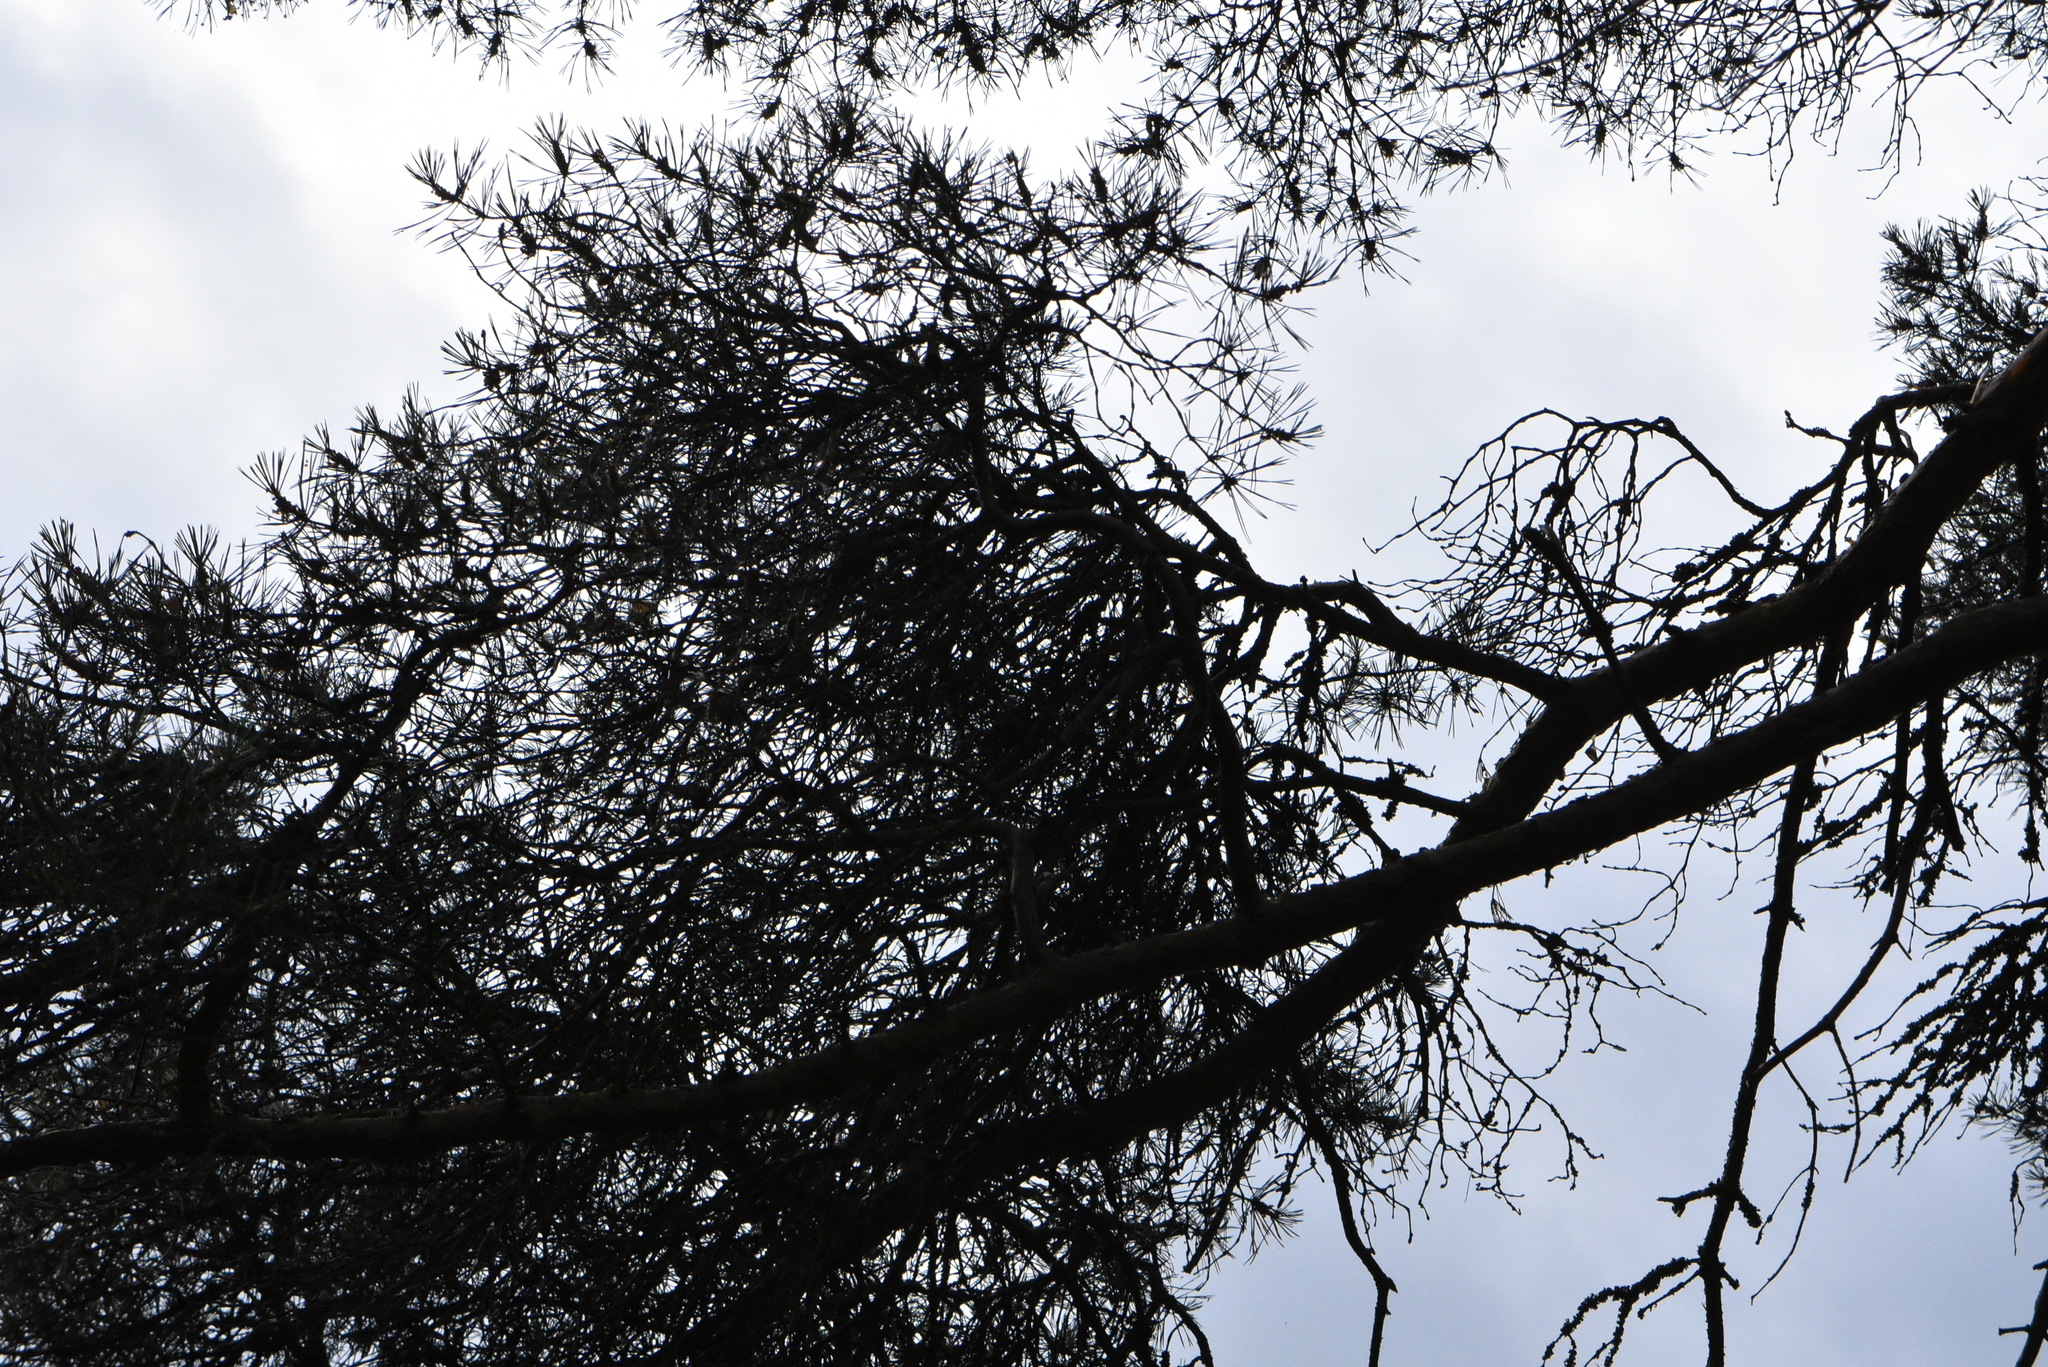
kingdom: Plantae
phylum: Tracheophyta
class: Pinopsida
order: Pinales
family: Pinaceae
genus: Pinus
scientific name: Pinus sylvestris
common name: Scots pine
